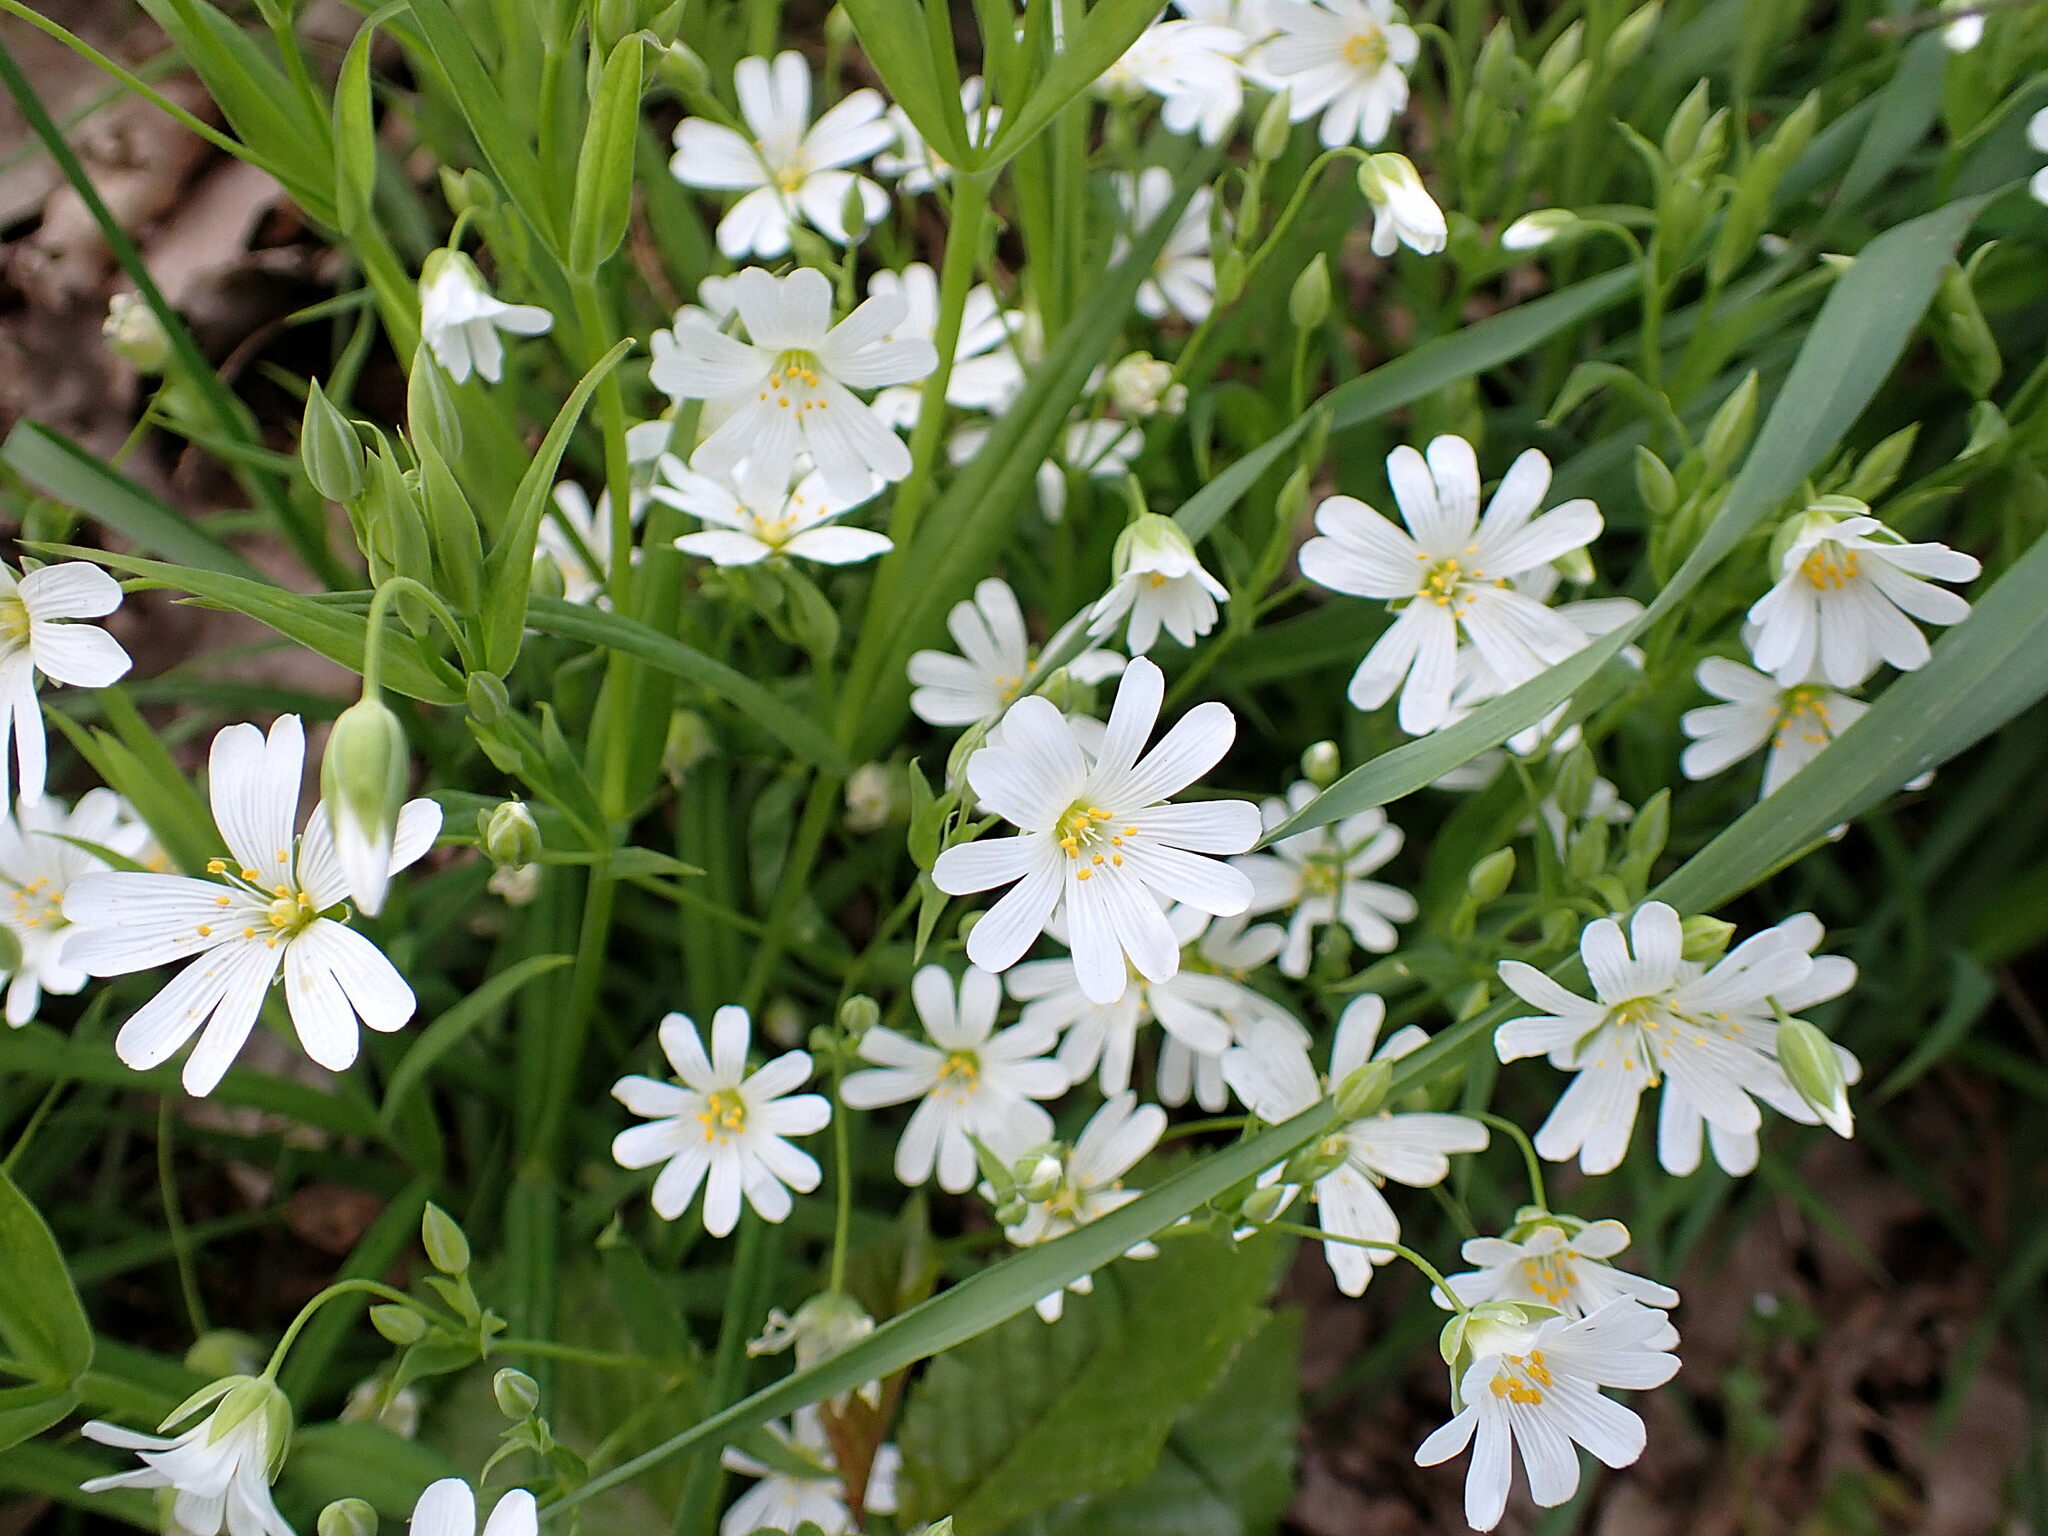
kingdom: Plantae
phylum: Tracheophyta
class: Magnoliopsida
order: Caryophyllales
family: Caryophyllaceae
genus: Rabelera
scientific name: Rabelera holostea
